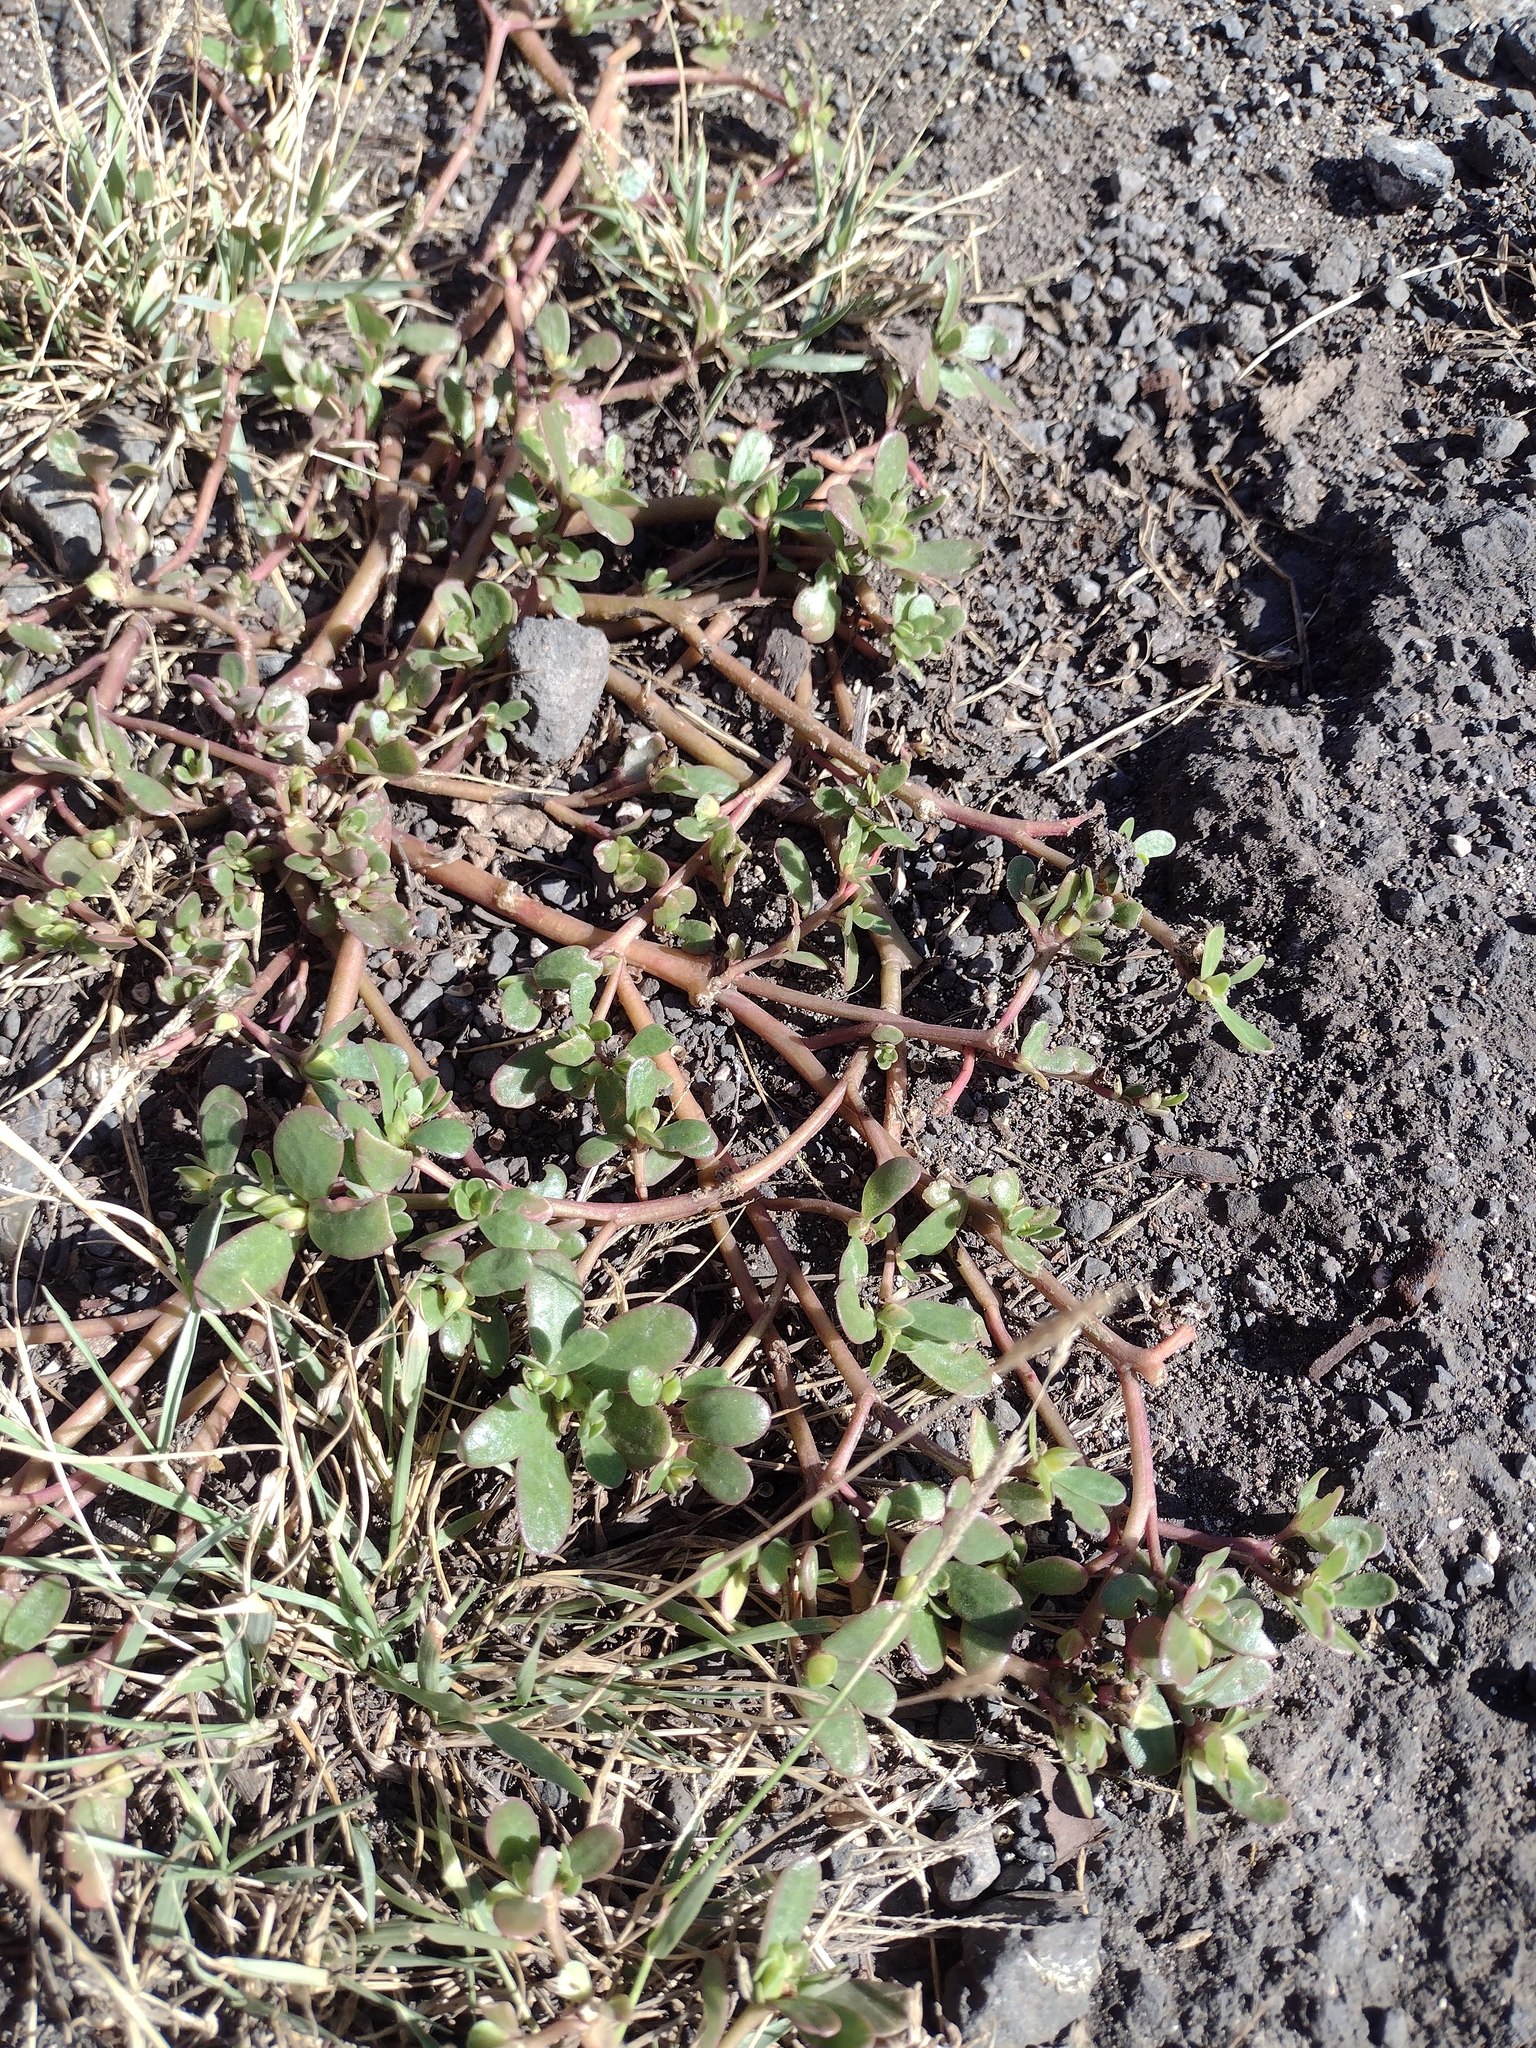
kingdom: Plantae
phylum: Tracheophyta
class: Magnoliopsida
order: Caryophyllales
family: Portulacaceae
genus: Portulaca
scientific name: Portulaca oleracea
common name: Common purslane
